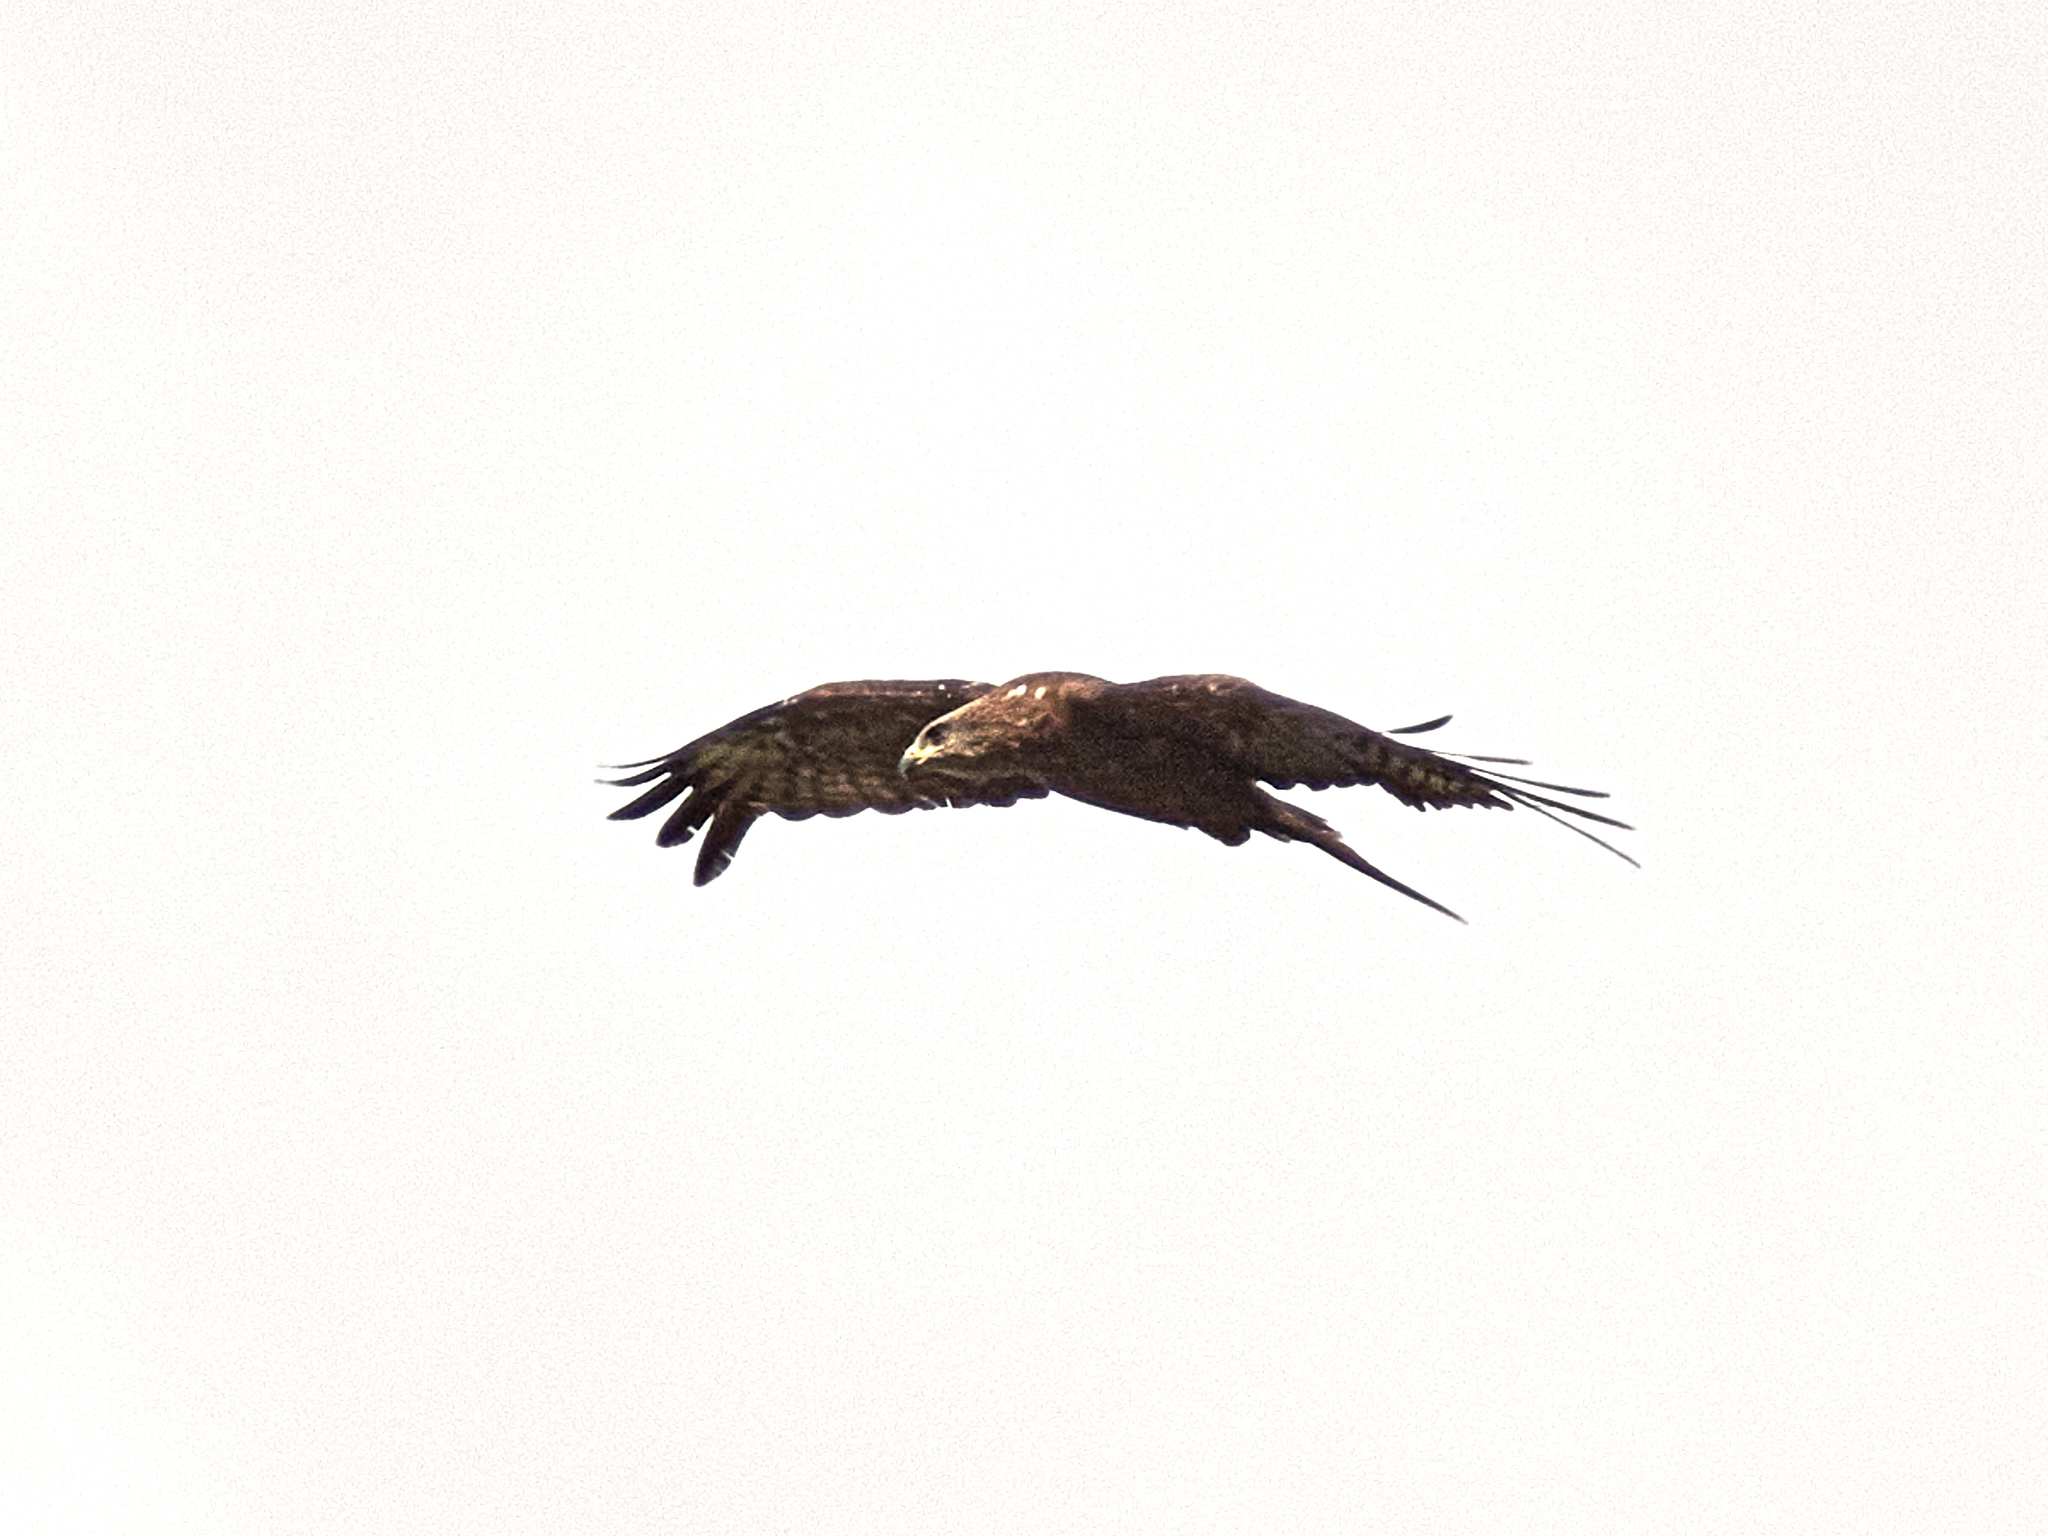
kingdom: Animalia
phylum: Chordata
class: Aves
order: Accipitriformes
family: Accipitridae
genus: Milvus
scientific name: Milvus migrans
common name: Black kite
